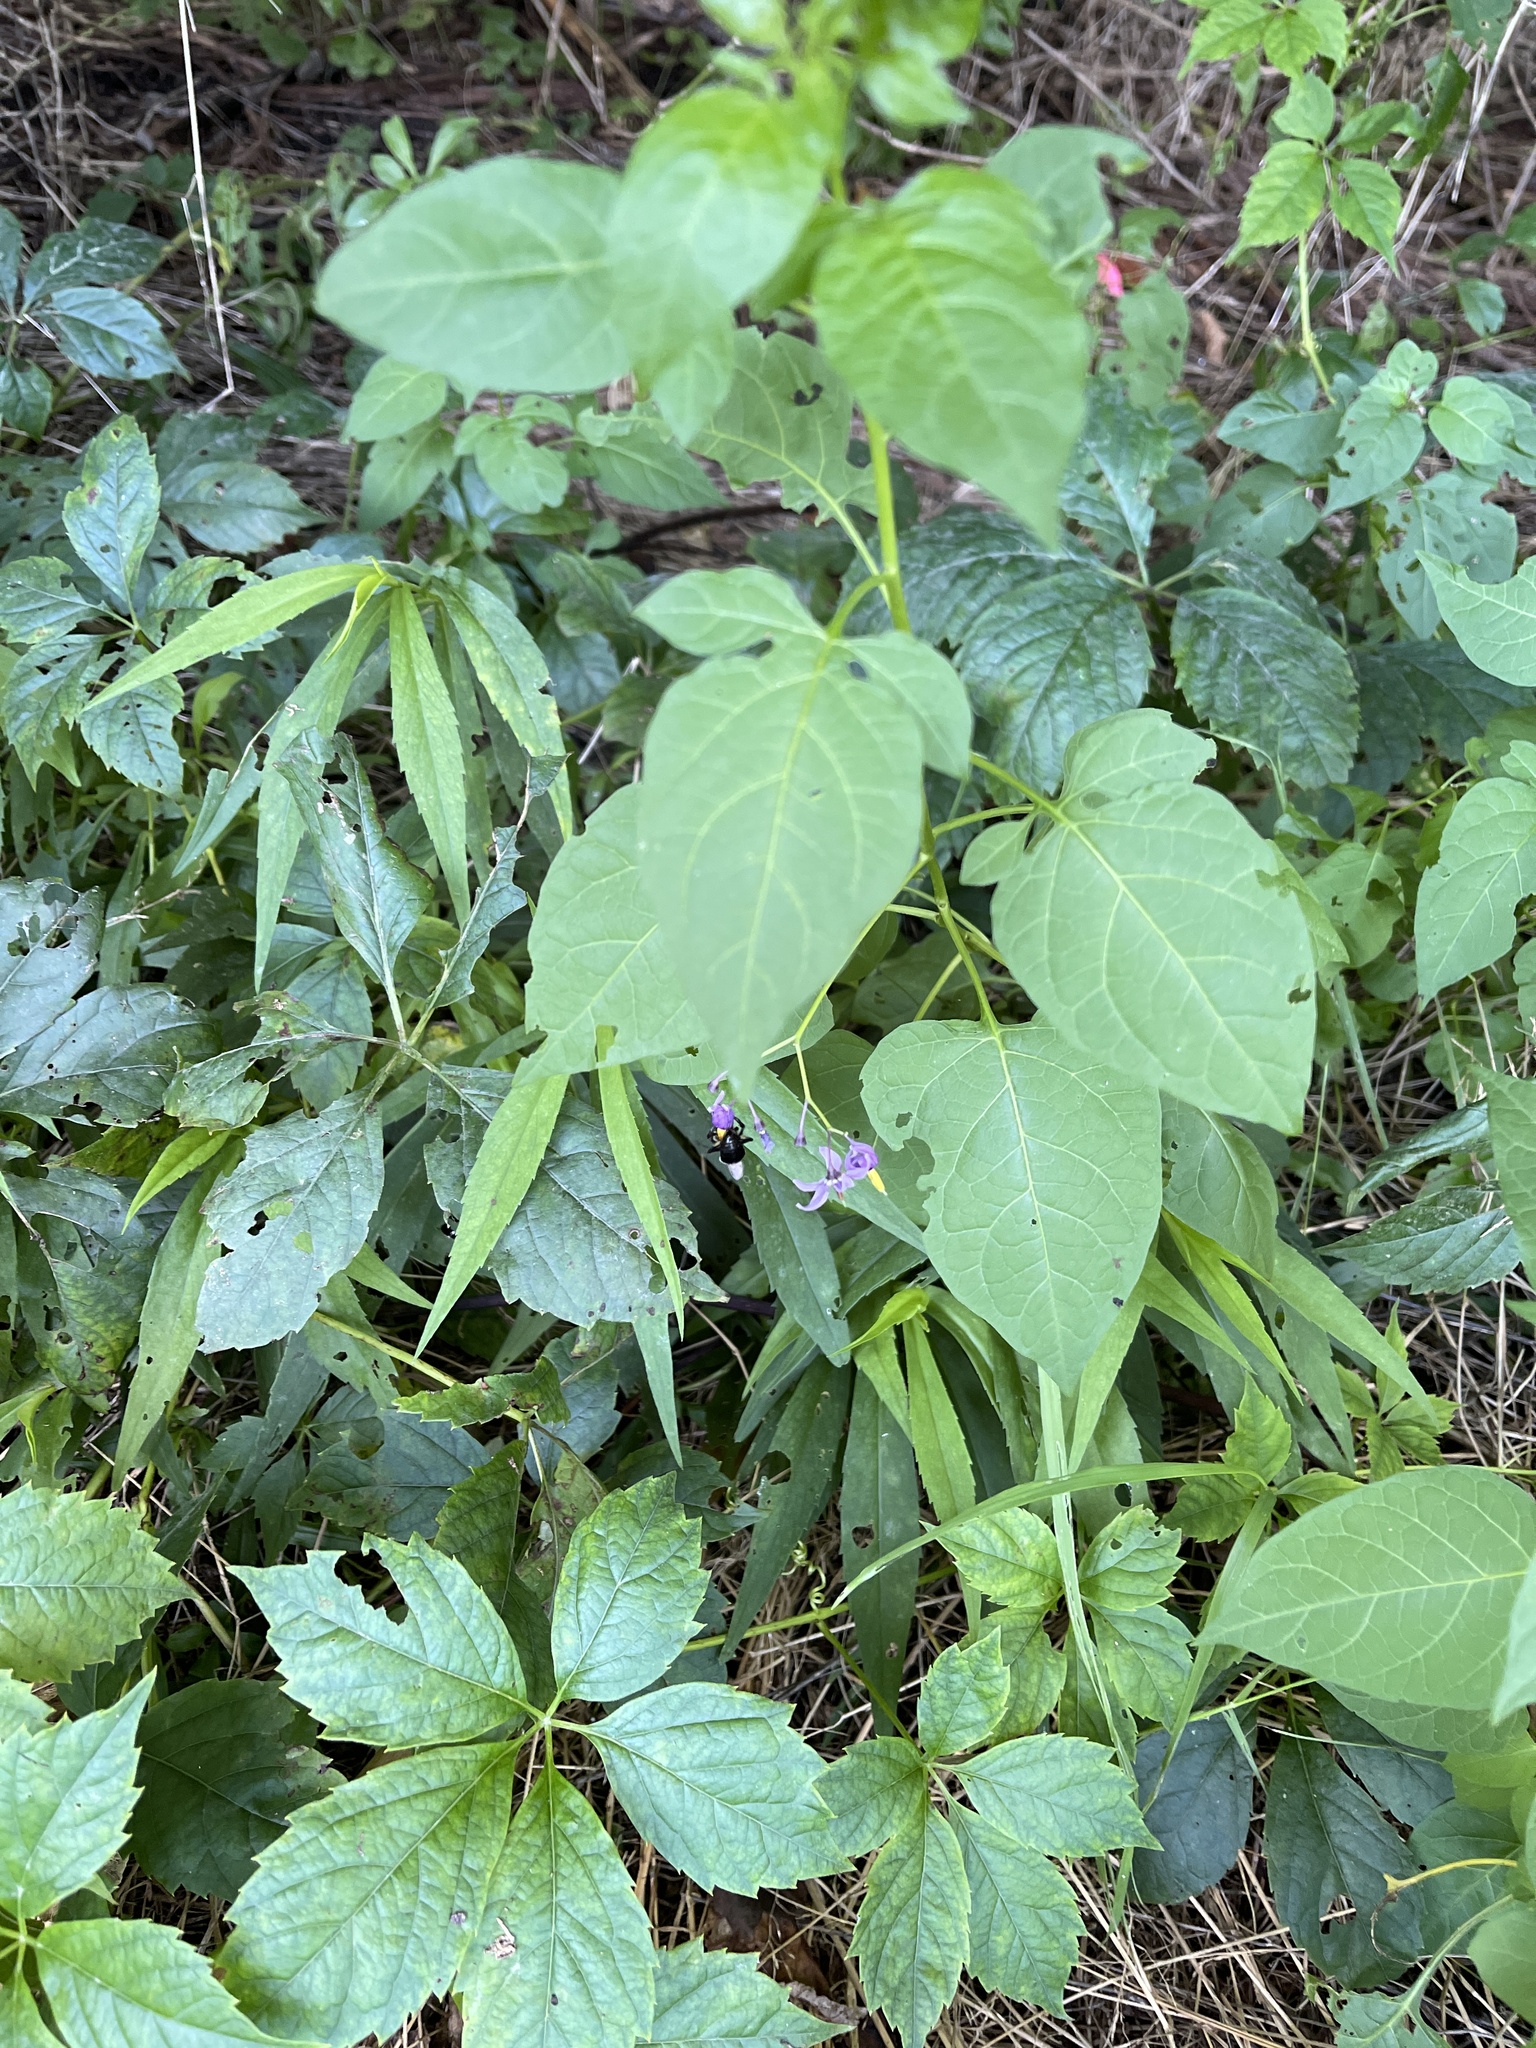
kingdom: Plantae
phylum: Tracheophyta
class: Magnoliopsida
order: Solanales
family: Solanaceae
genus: Solanum
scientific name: Solanum dulcamara
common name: Climbing nightshade
